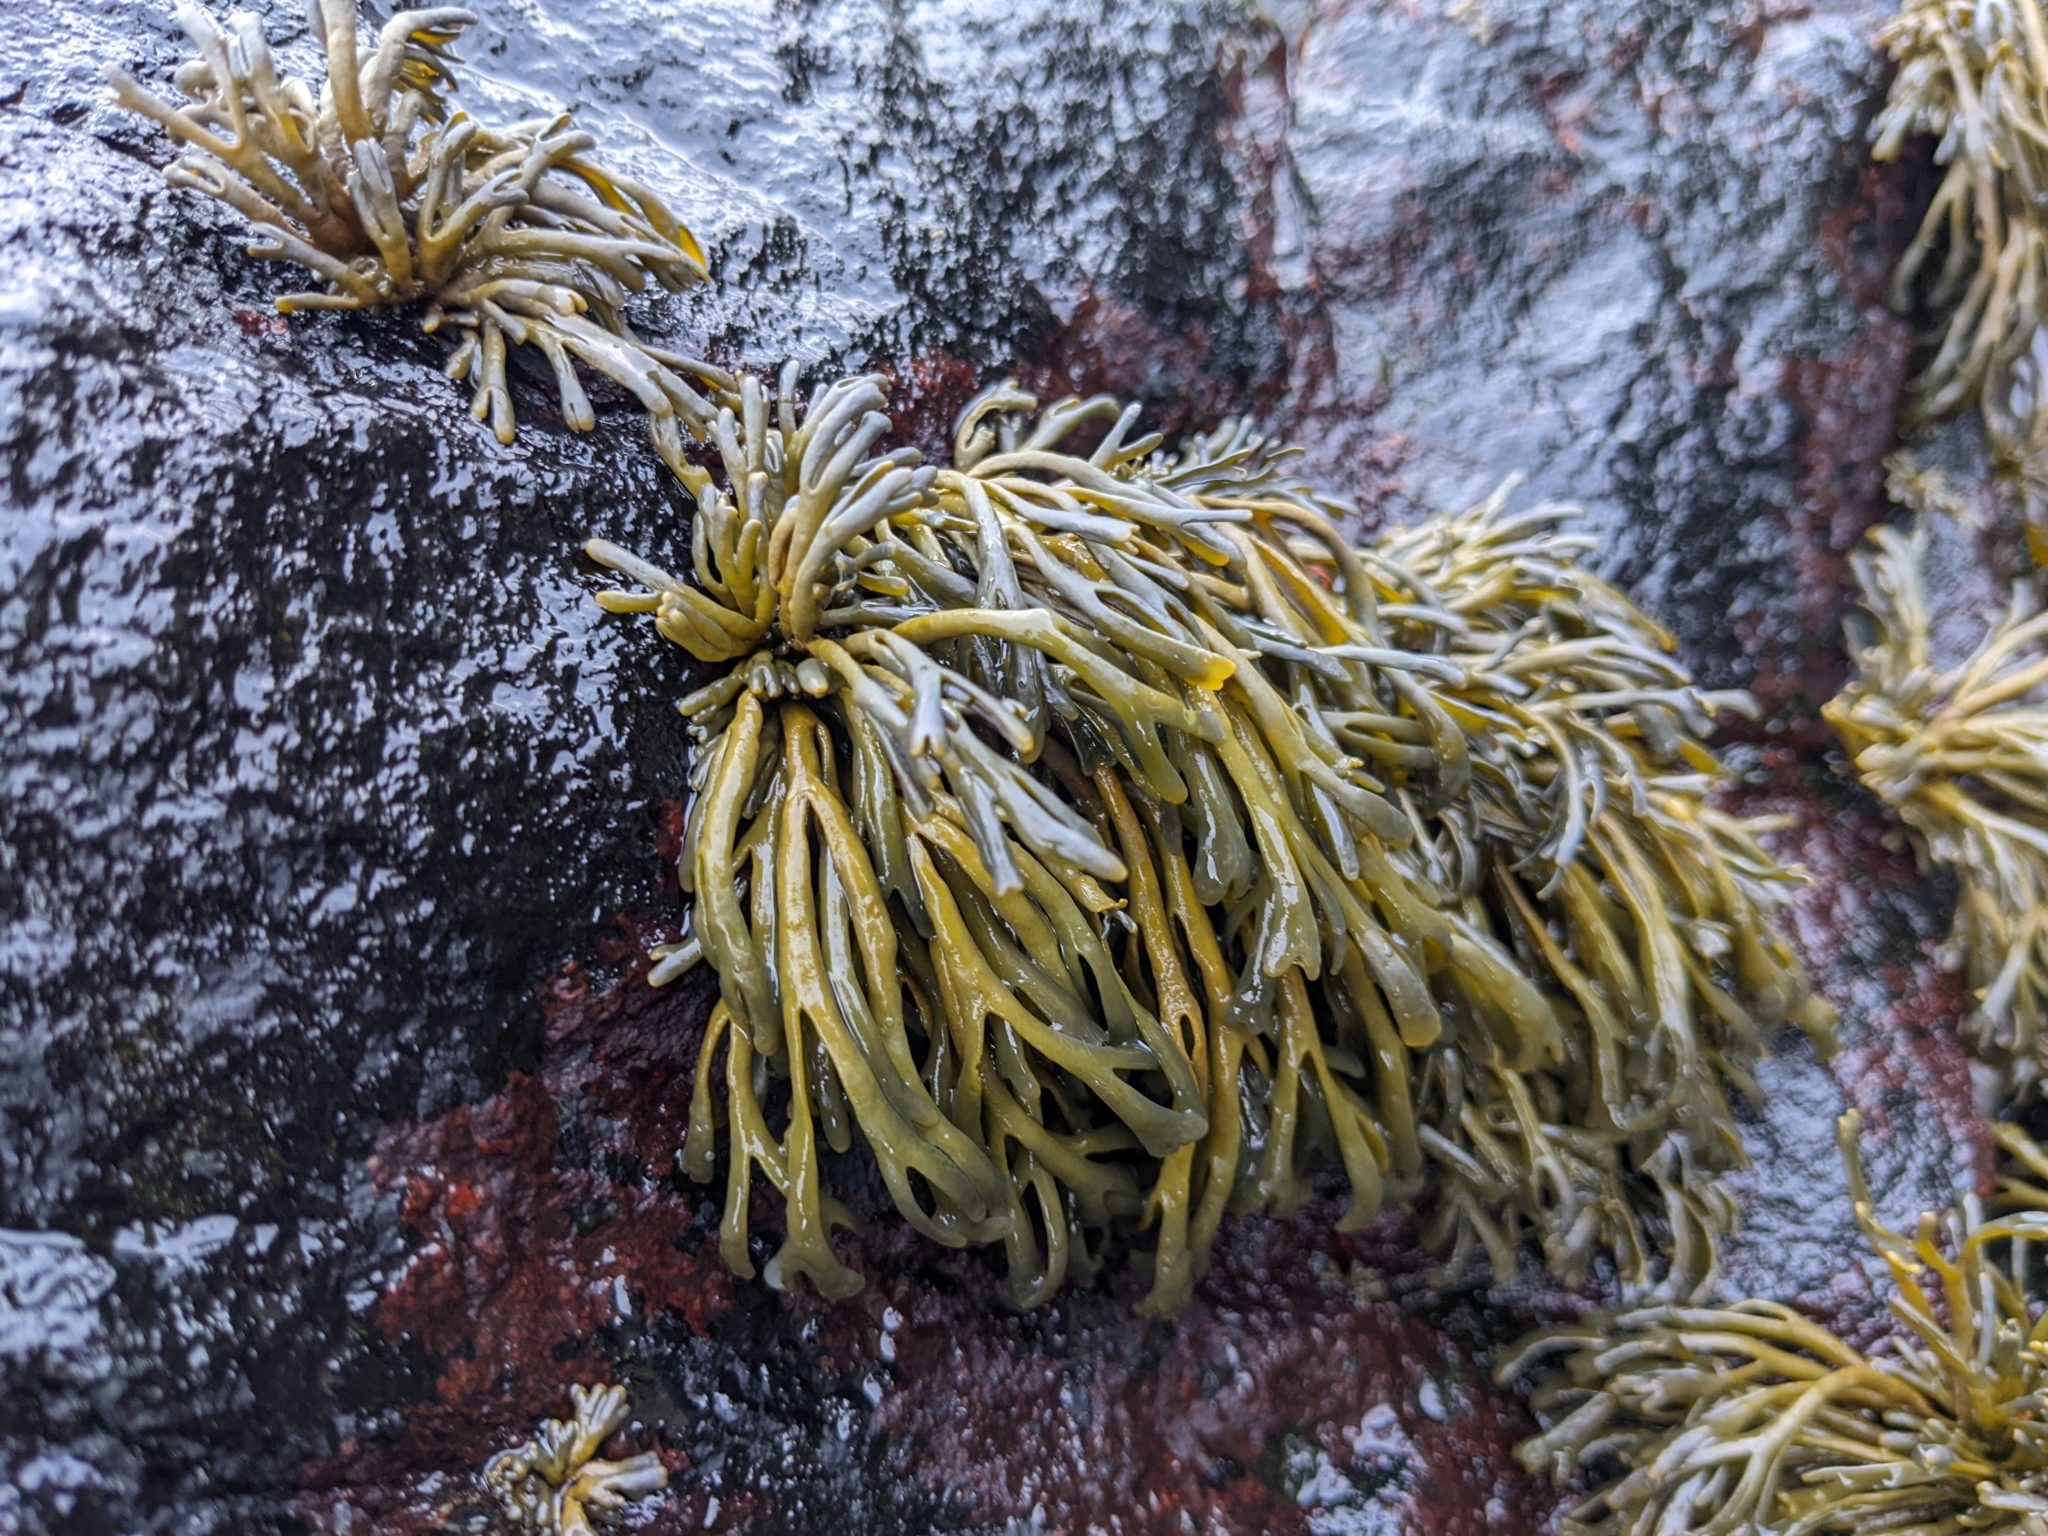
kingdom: Chromista
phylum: Ochrophyta
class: Phaeophyceae
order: Fucales
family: Fucaceae
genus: Pelvetia
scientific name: Pelvetia canaliculata
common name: Channelled wrack
